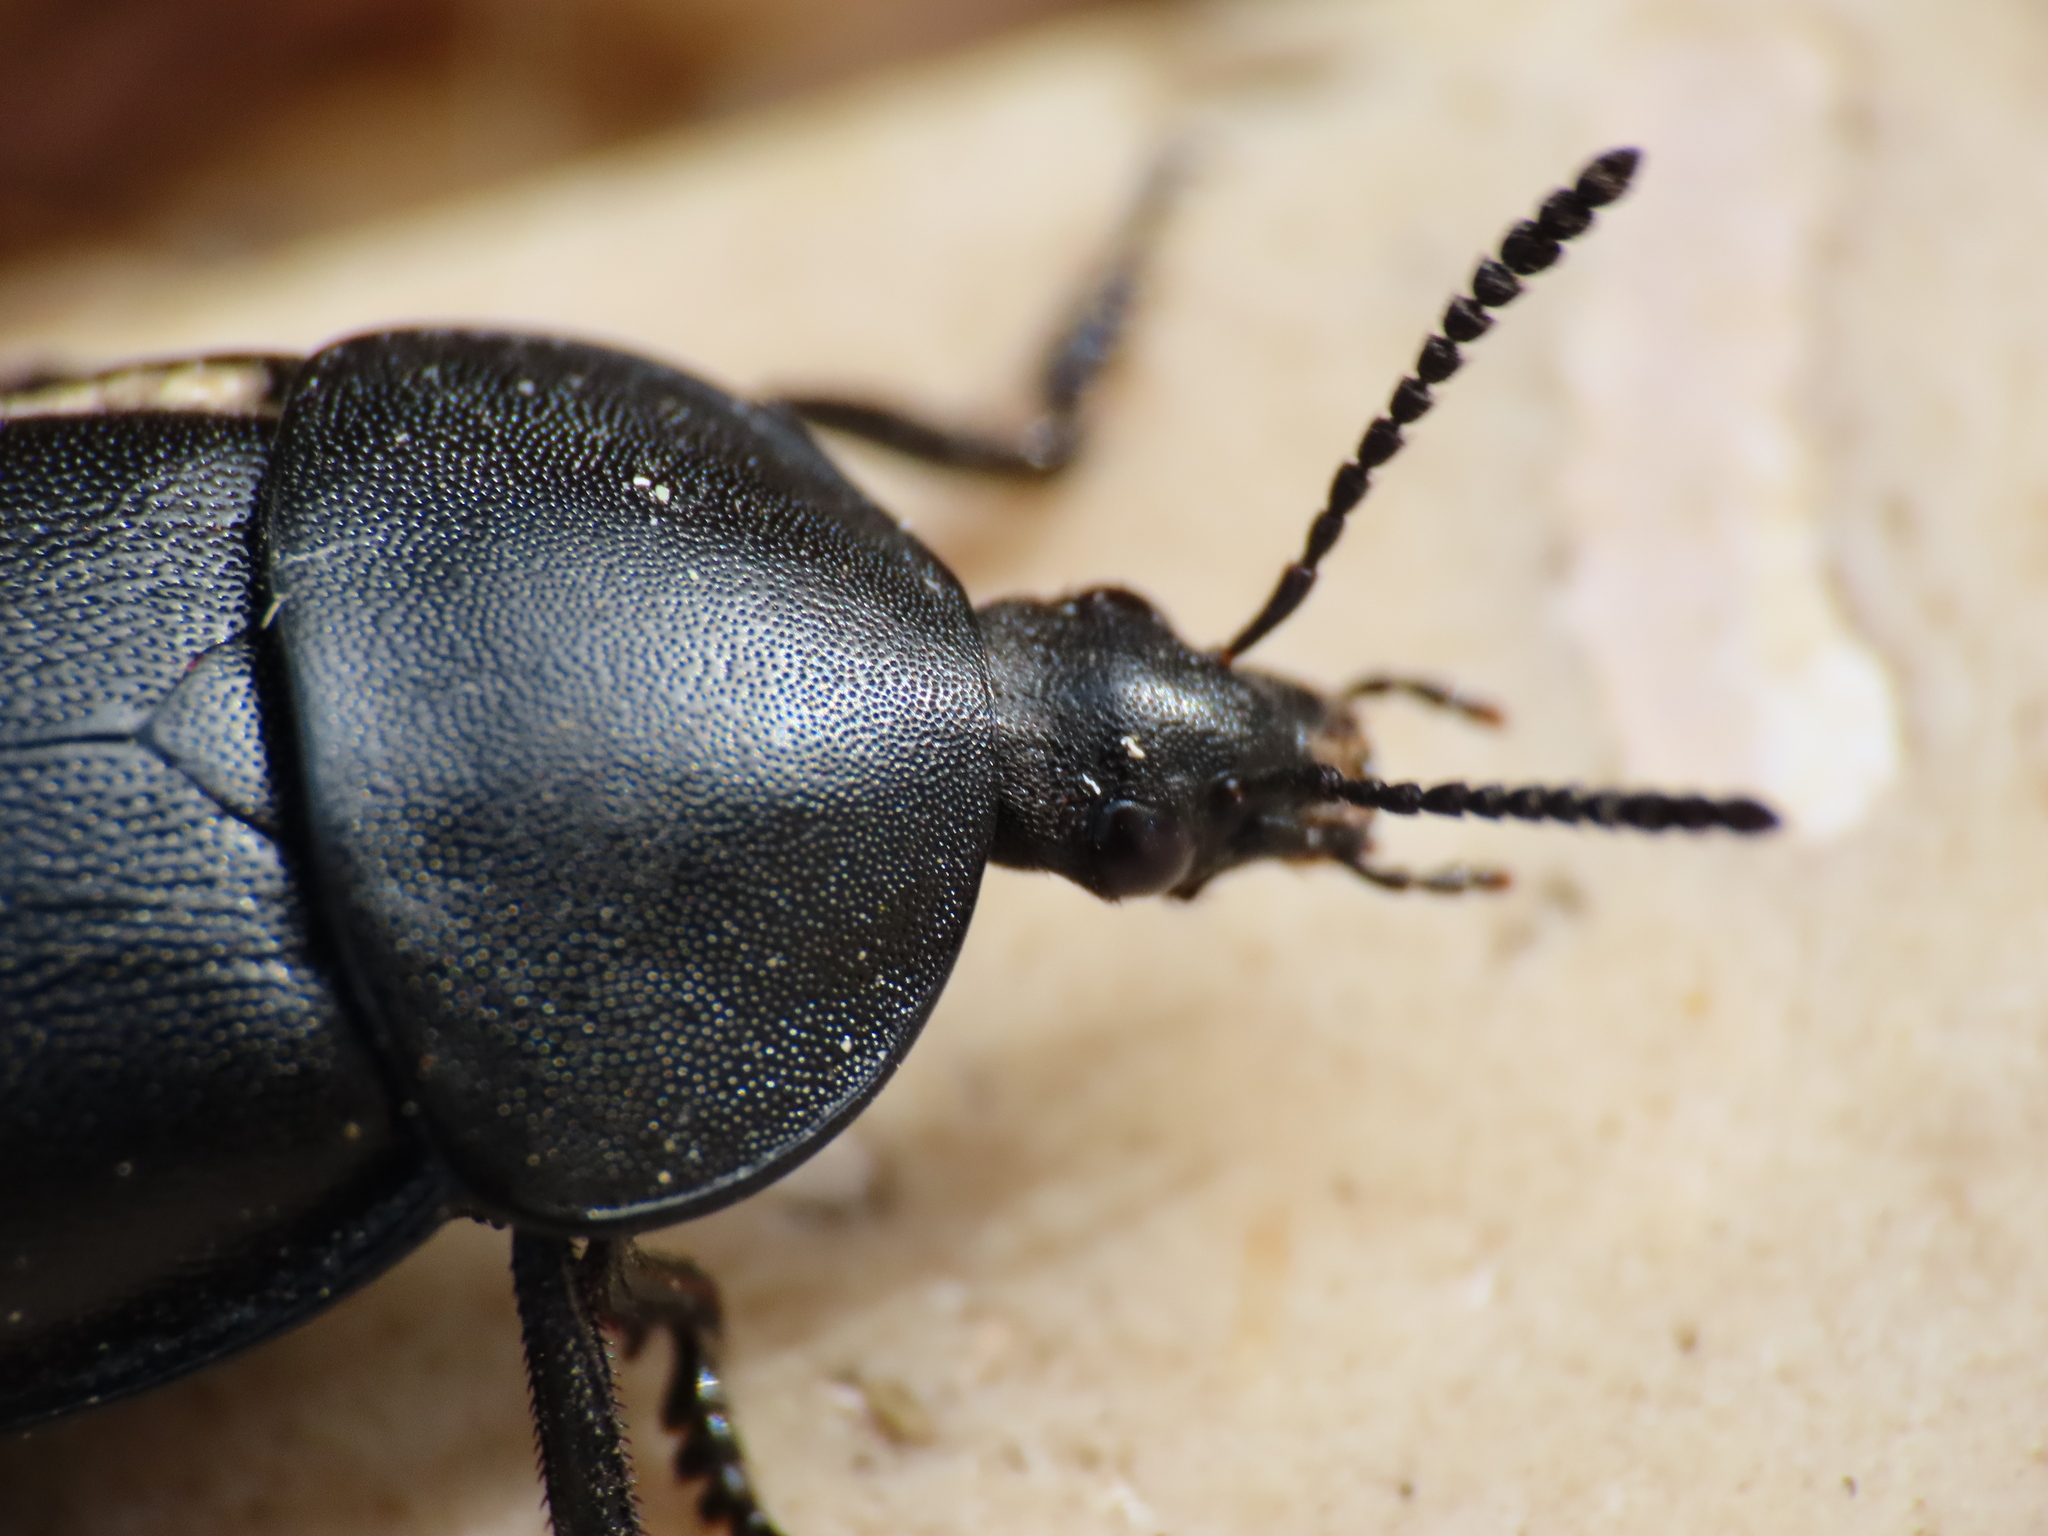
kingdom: Animalia
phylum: Arthropoda
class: Insecta
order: Coleoptera
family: Staphylinidae
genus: Silpha
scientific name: Silpha laevigata
